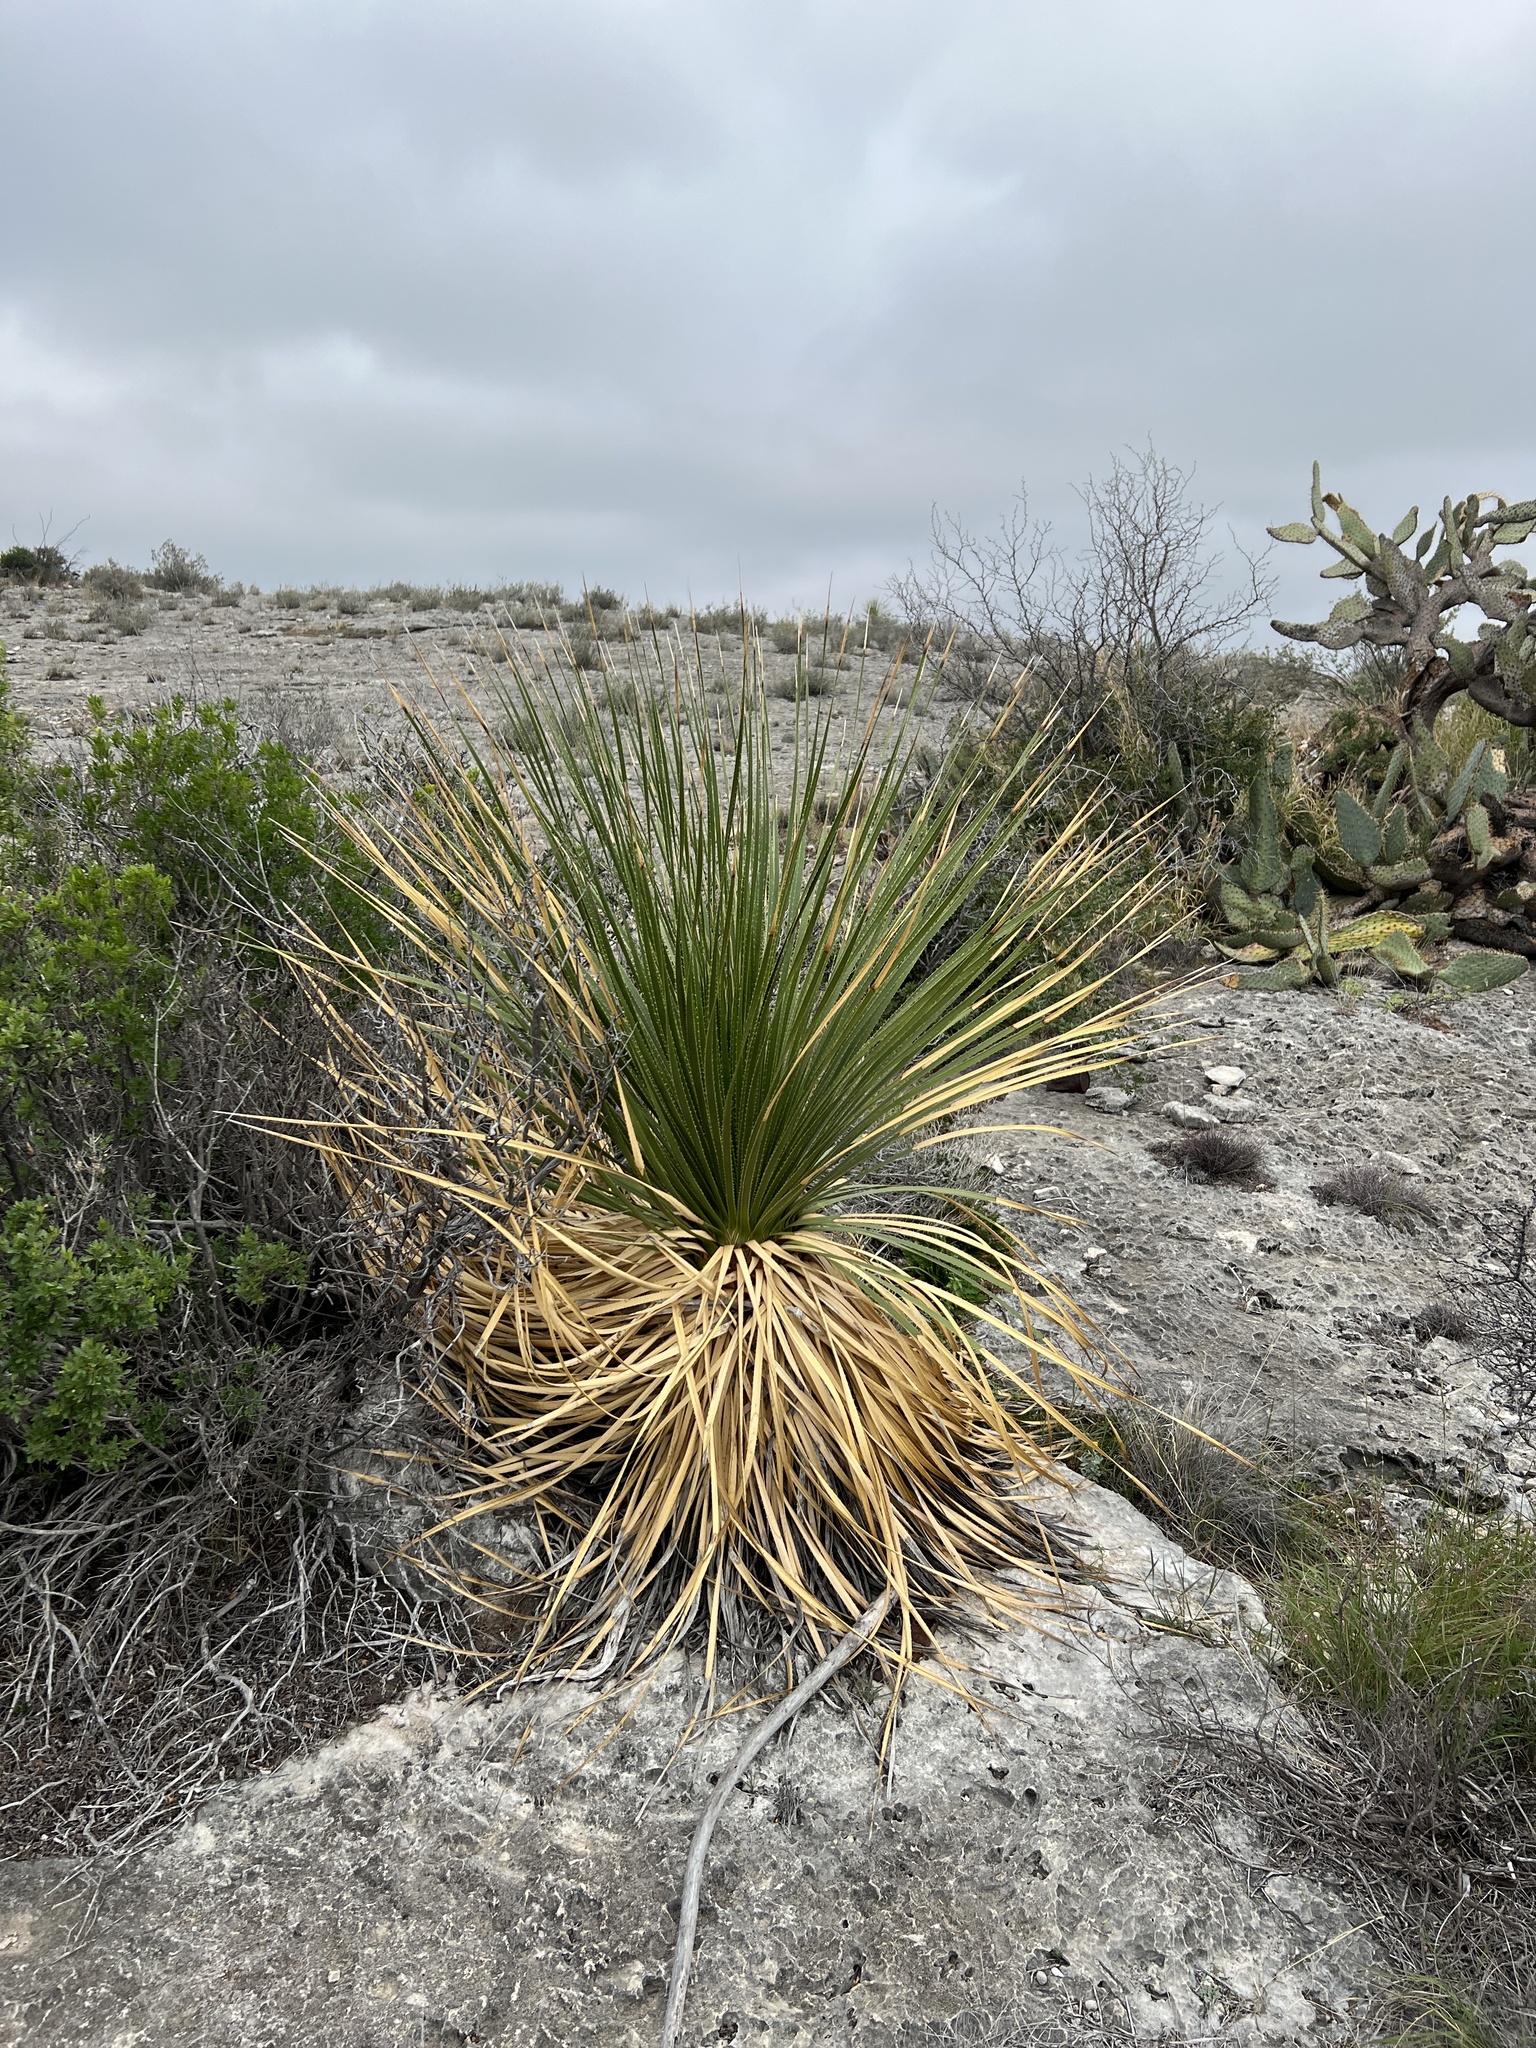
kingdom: Plantae
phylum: Tracheophyta
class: Liliopsida
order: Asparagales
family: Asparagaceae
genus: Dasylirion
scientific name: Dasylirion texanum
